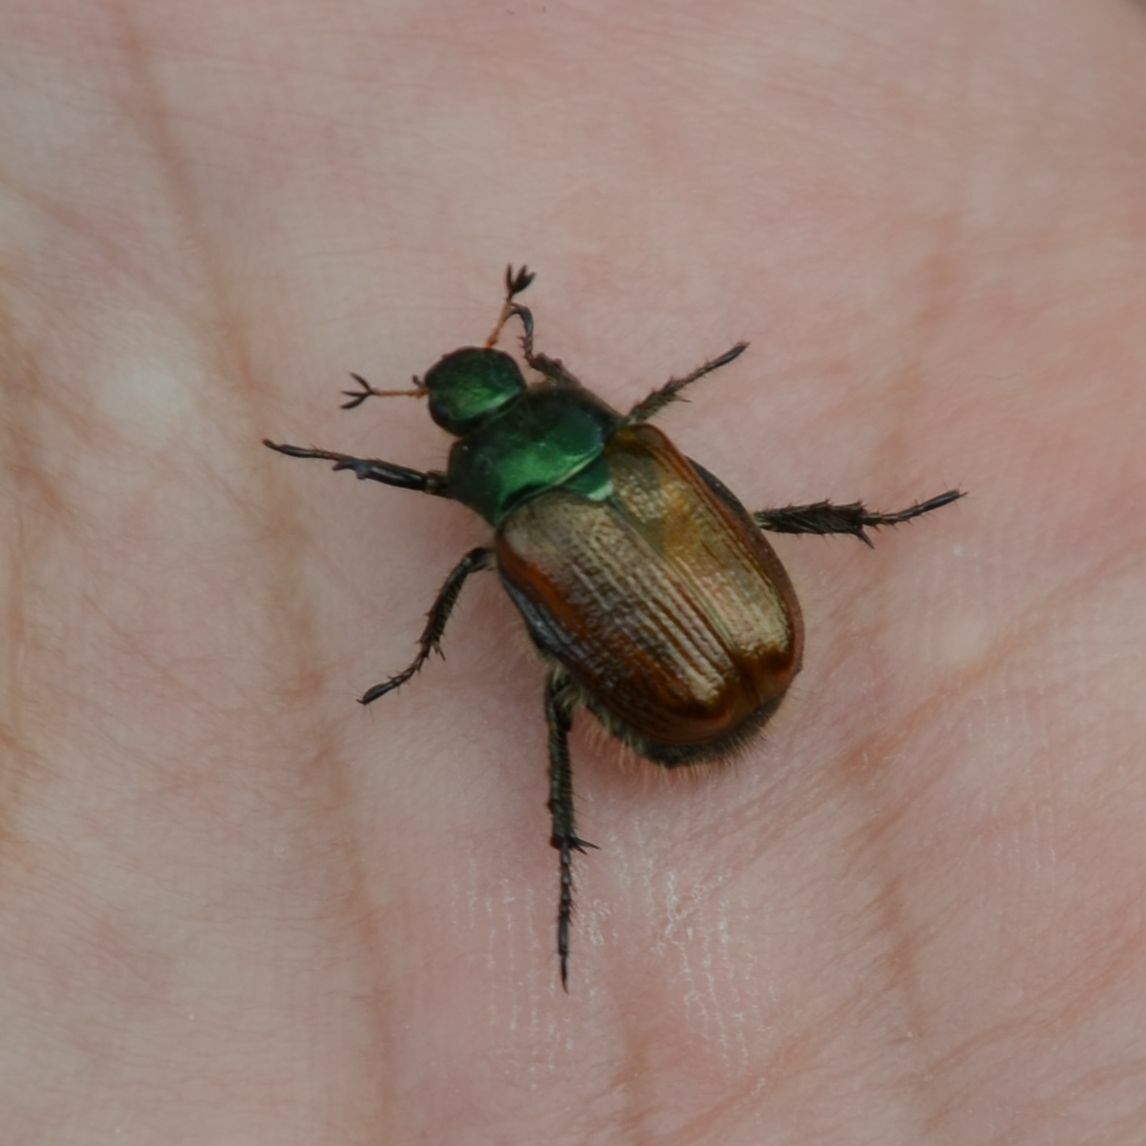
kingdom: Animalia
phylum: Arthropoda
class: Insecta
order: Coleoptera
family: Scarabaeidae
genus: Phyllopertha
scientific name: Phyllopertha horticola
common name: Garden chafer
